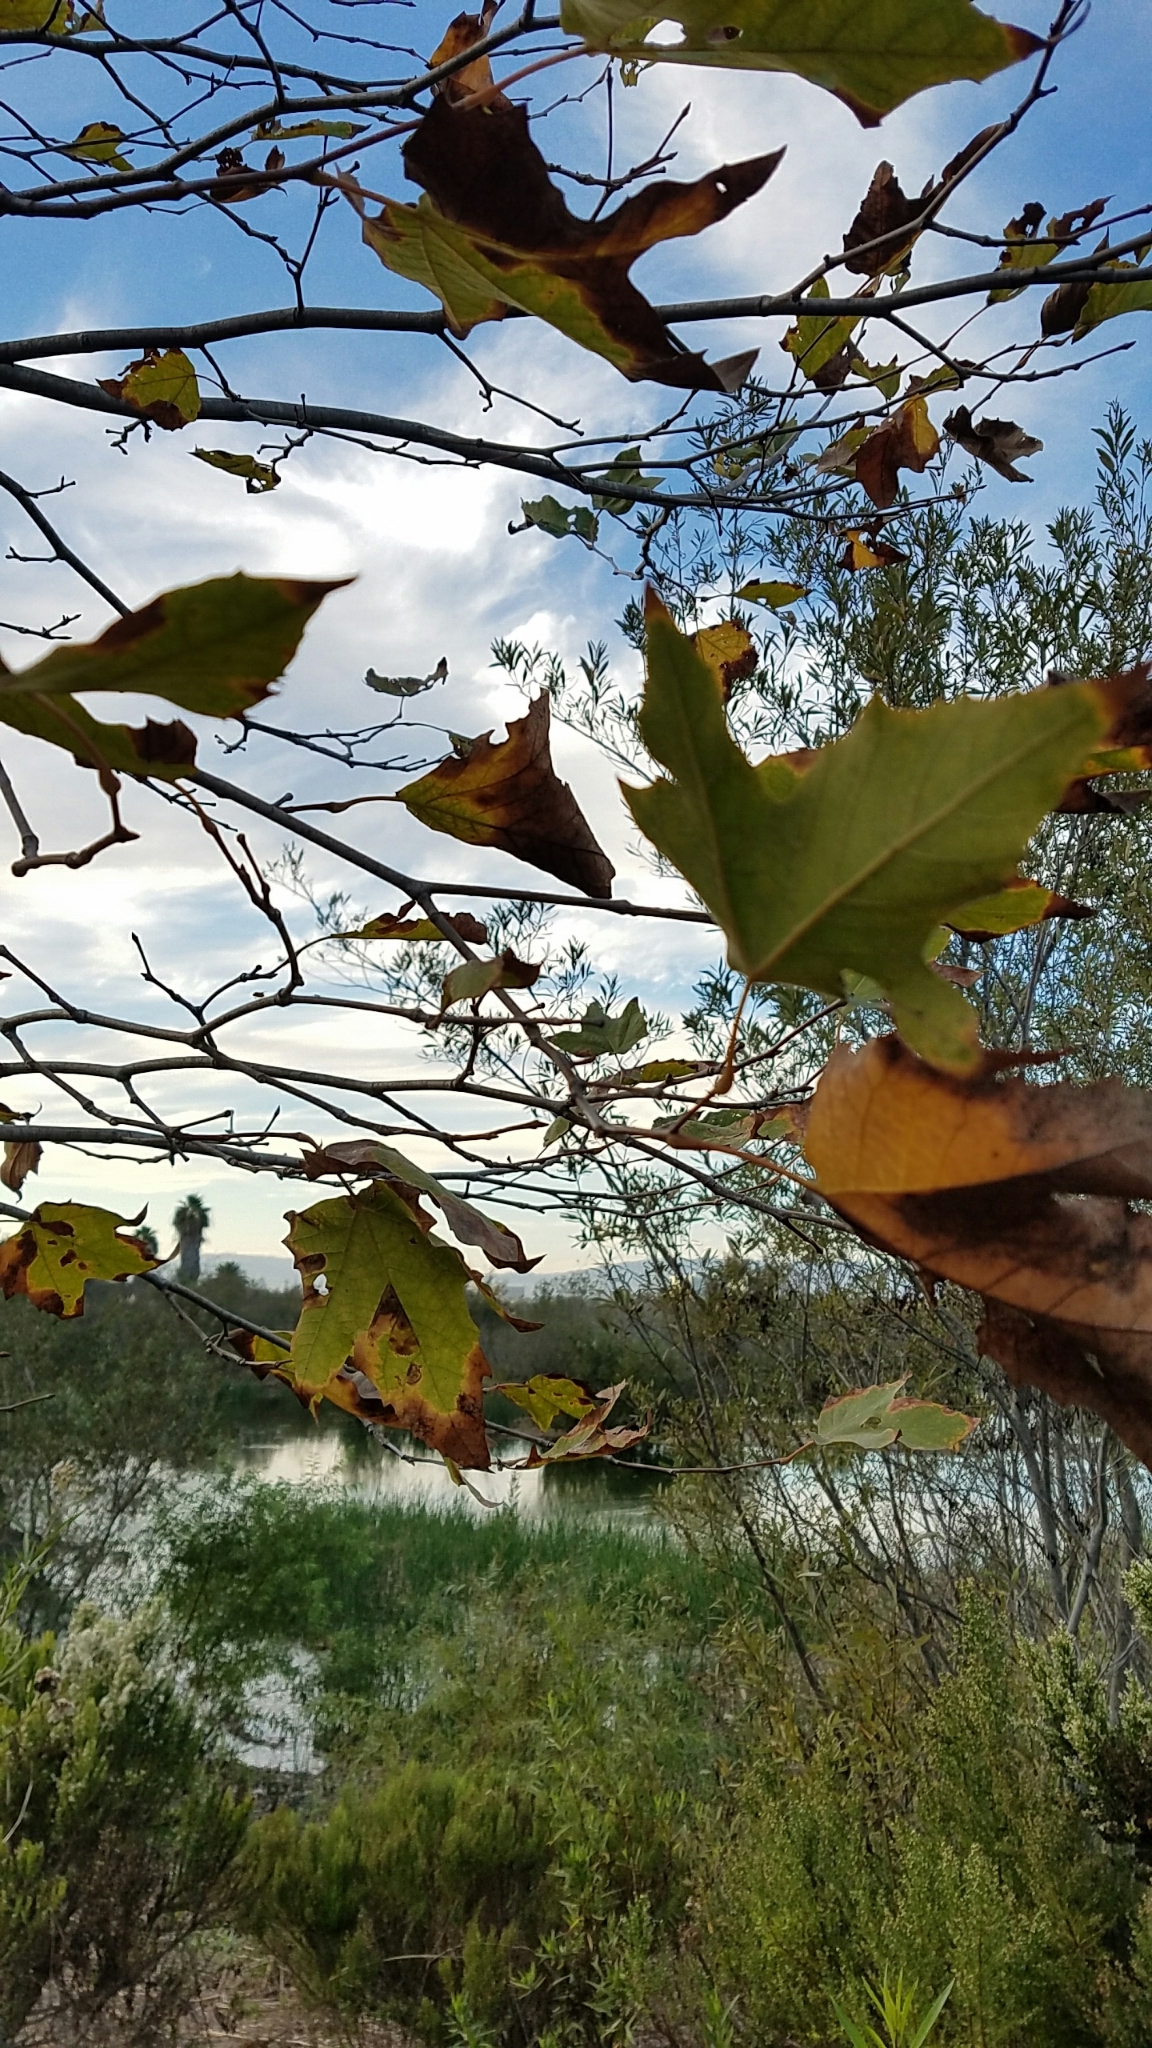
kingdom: Plantae
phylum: Tracheophyta
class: Magnoliopsida
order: Proteales
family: Platanaceae
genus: Platanus
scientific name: Platanus racemosa
